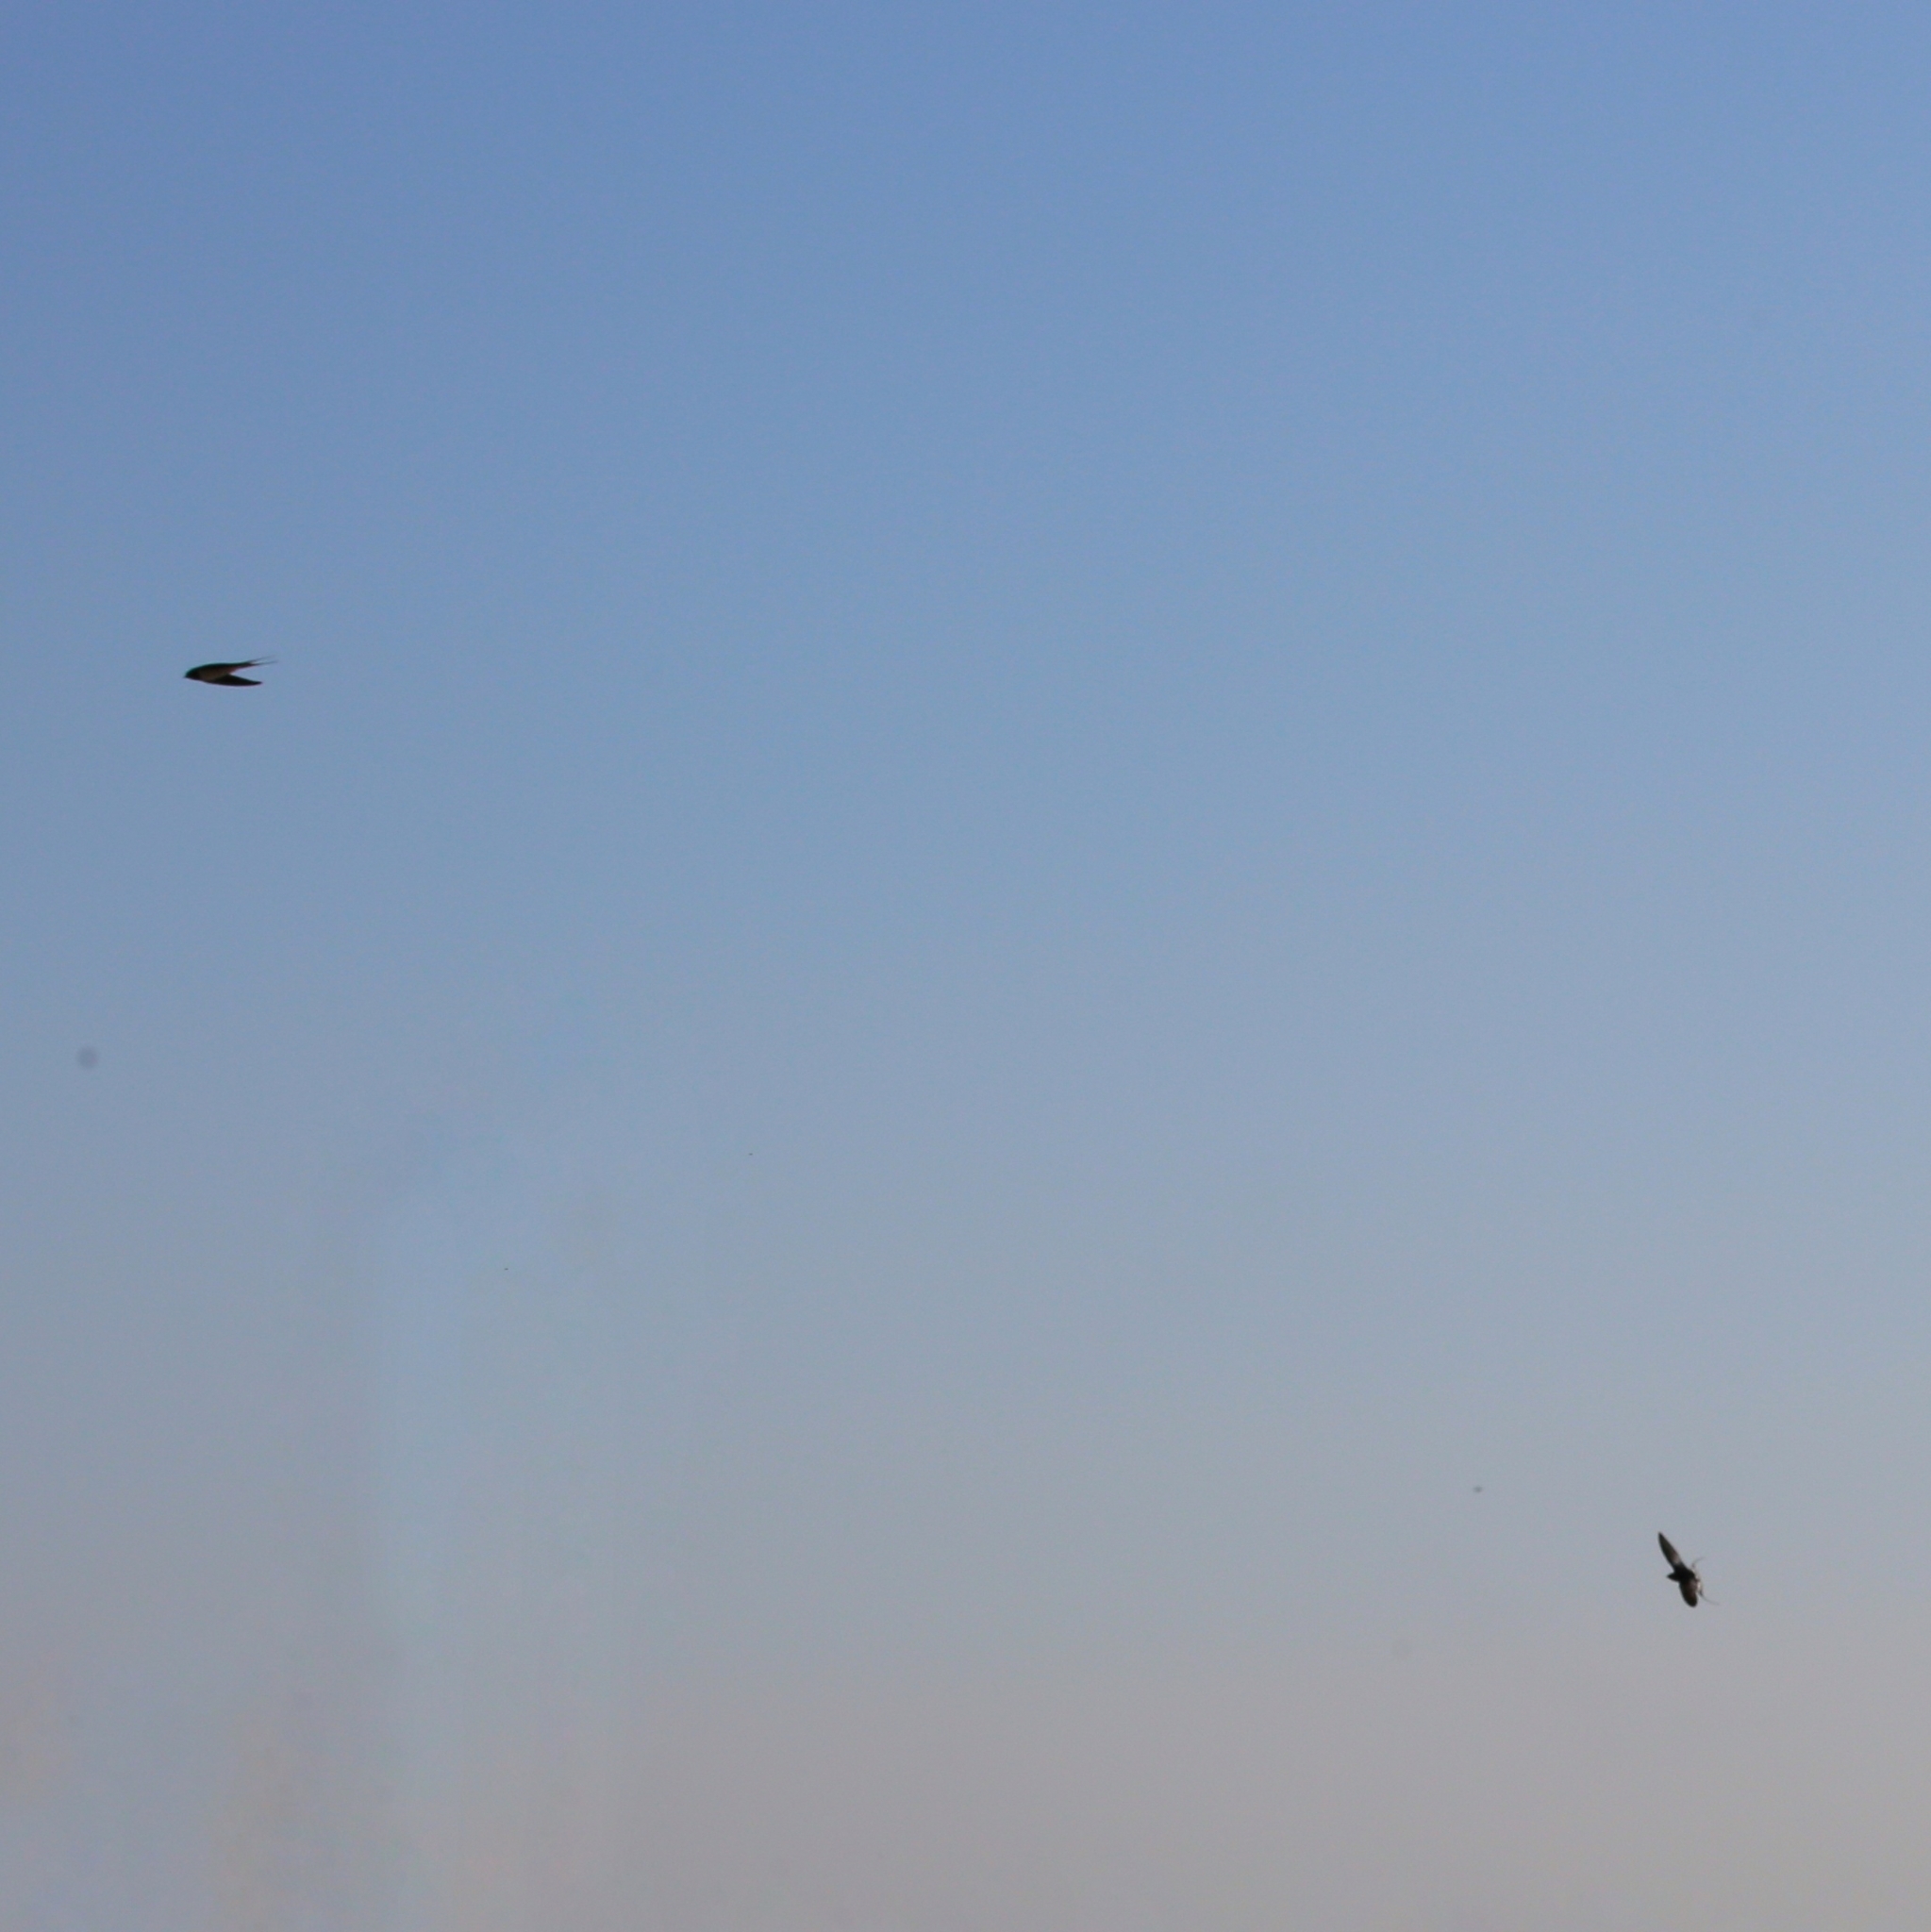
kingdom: Animalia
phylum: Chordata
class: Aves
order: Passeriformes
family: Hirundinidae
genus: Hirundo
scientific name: Hirundo rustica
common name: Barn swallow
